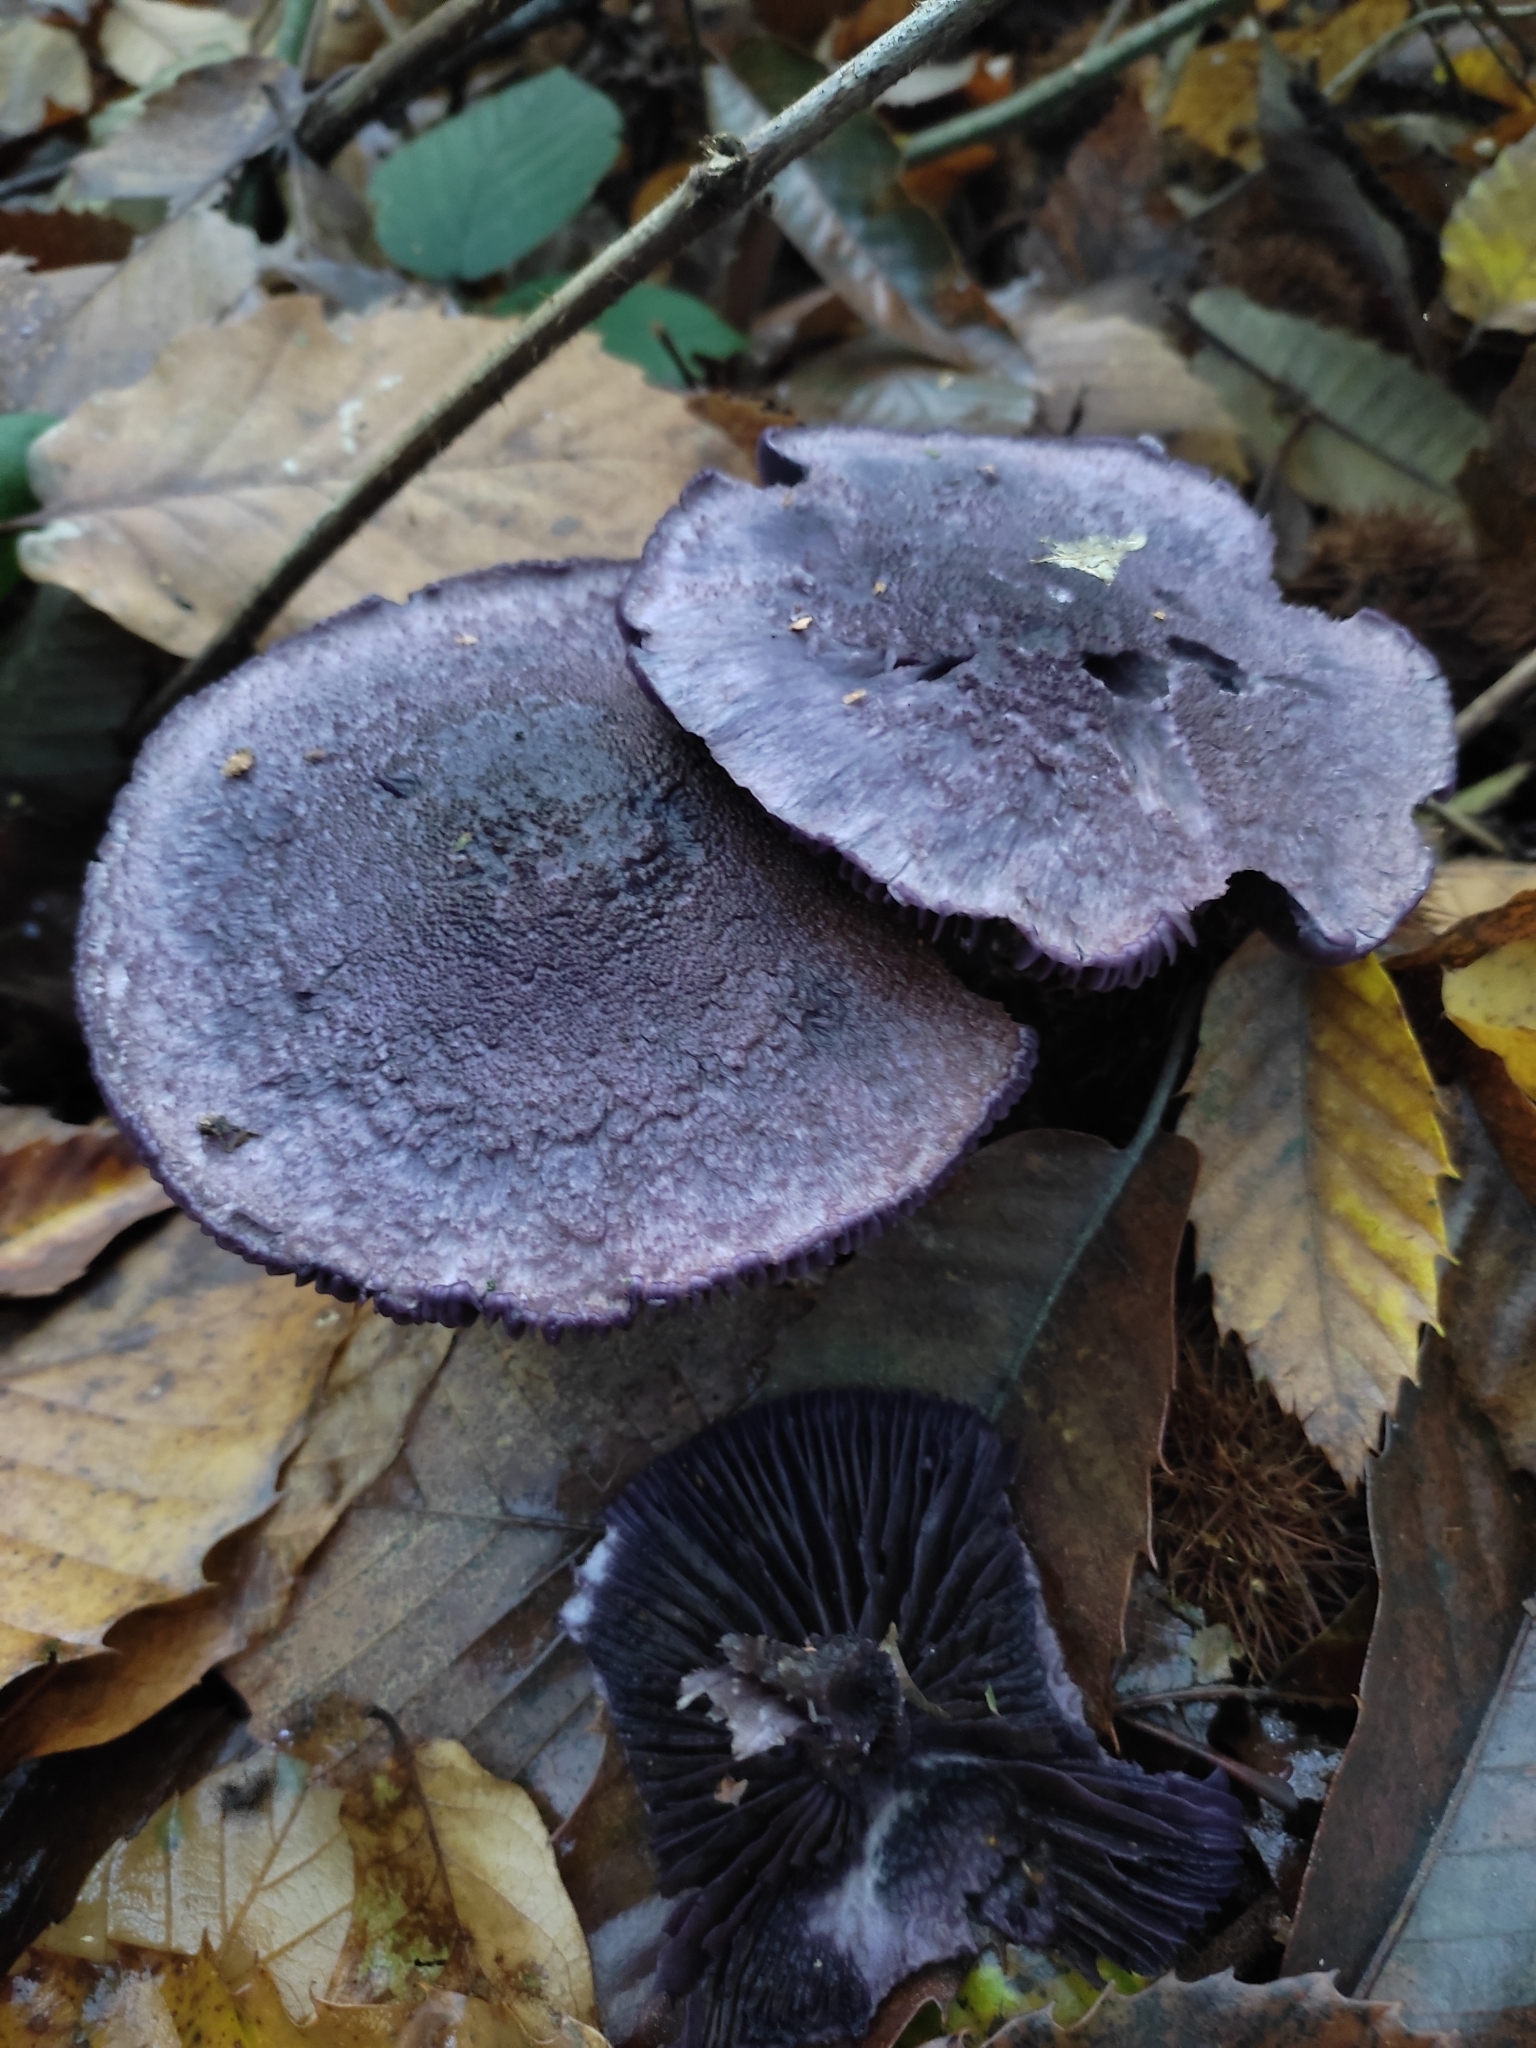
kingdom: Fungi
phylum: Basidiomycota
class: Agaricomycetes
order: Agaricales
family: Cortinariaceae
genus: Cortinarius
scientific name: Cortinarius violaceus
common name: Violet webcap
